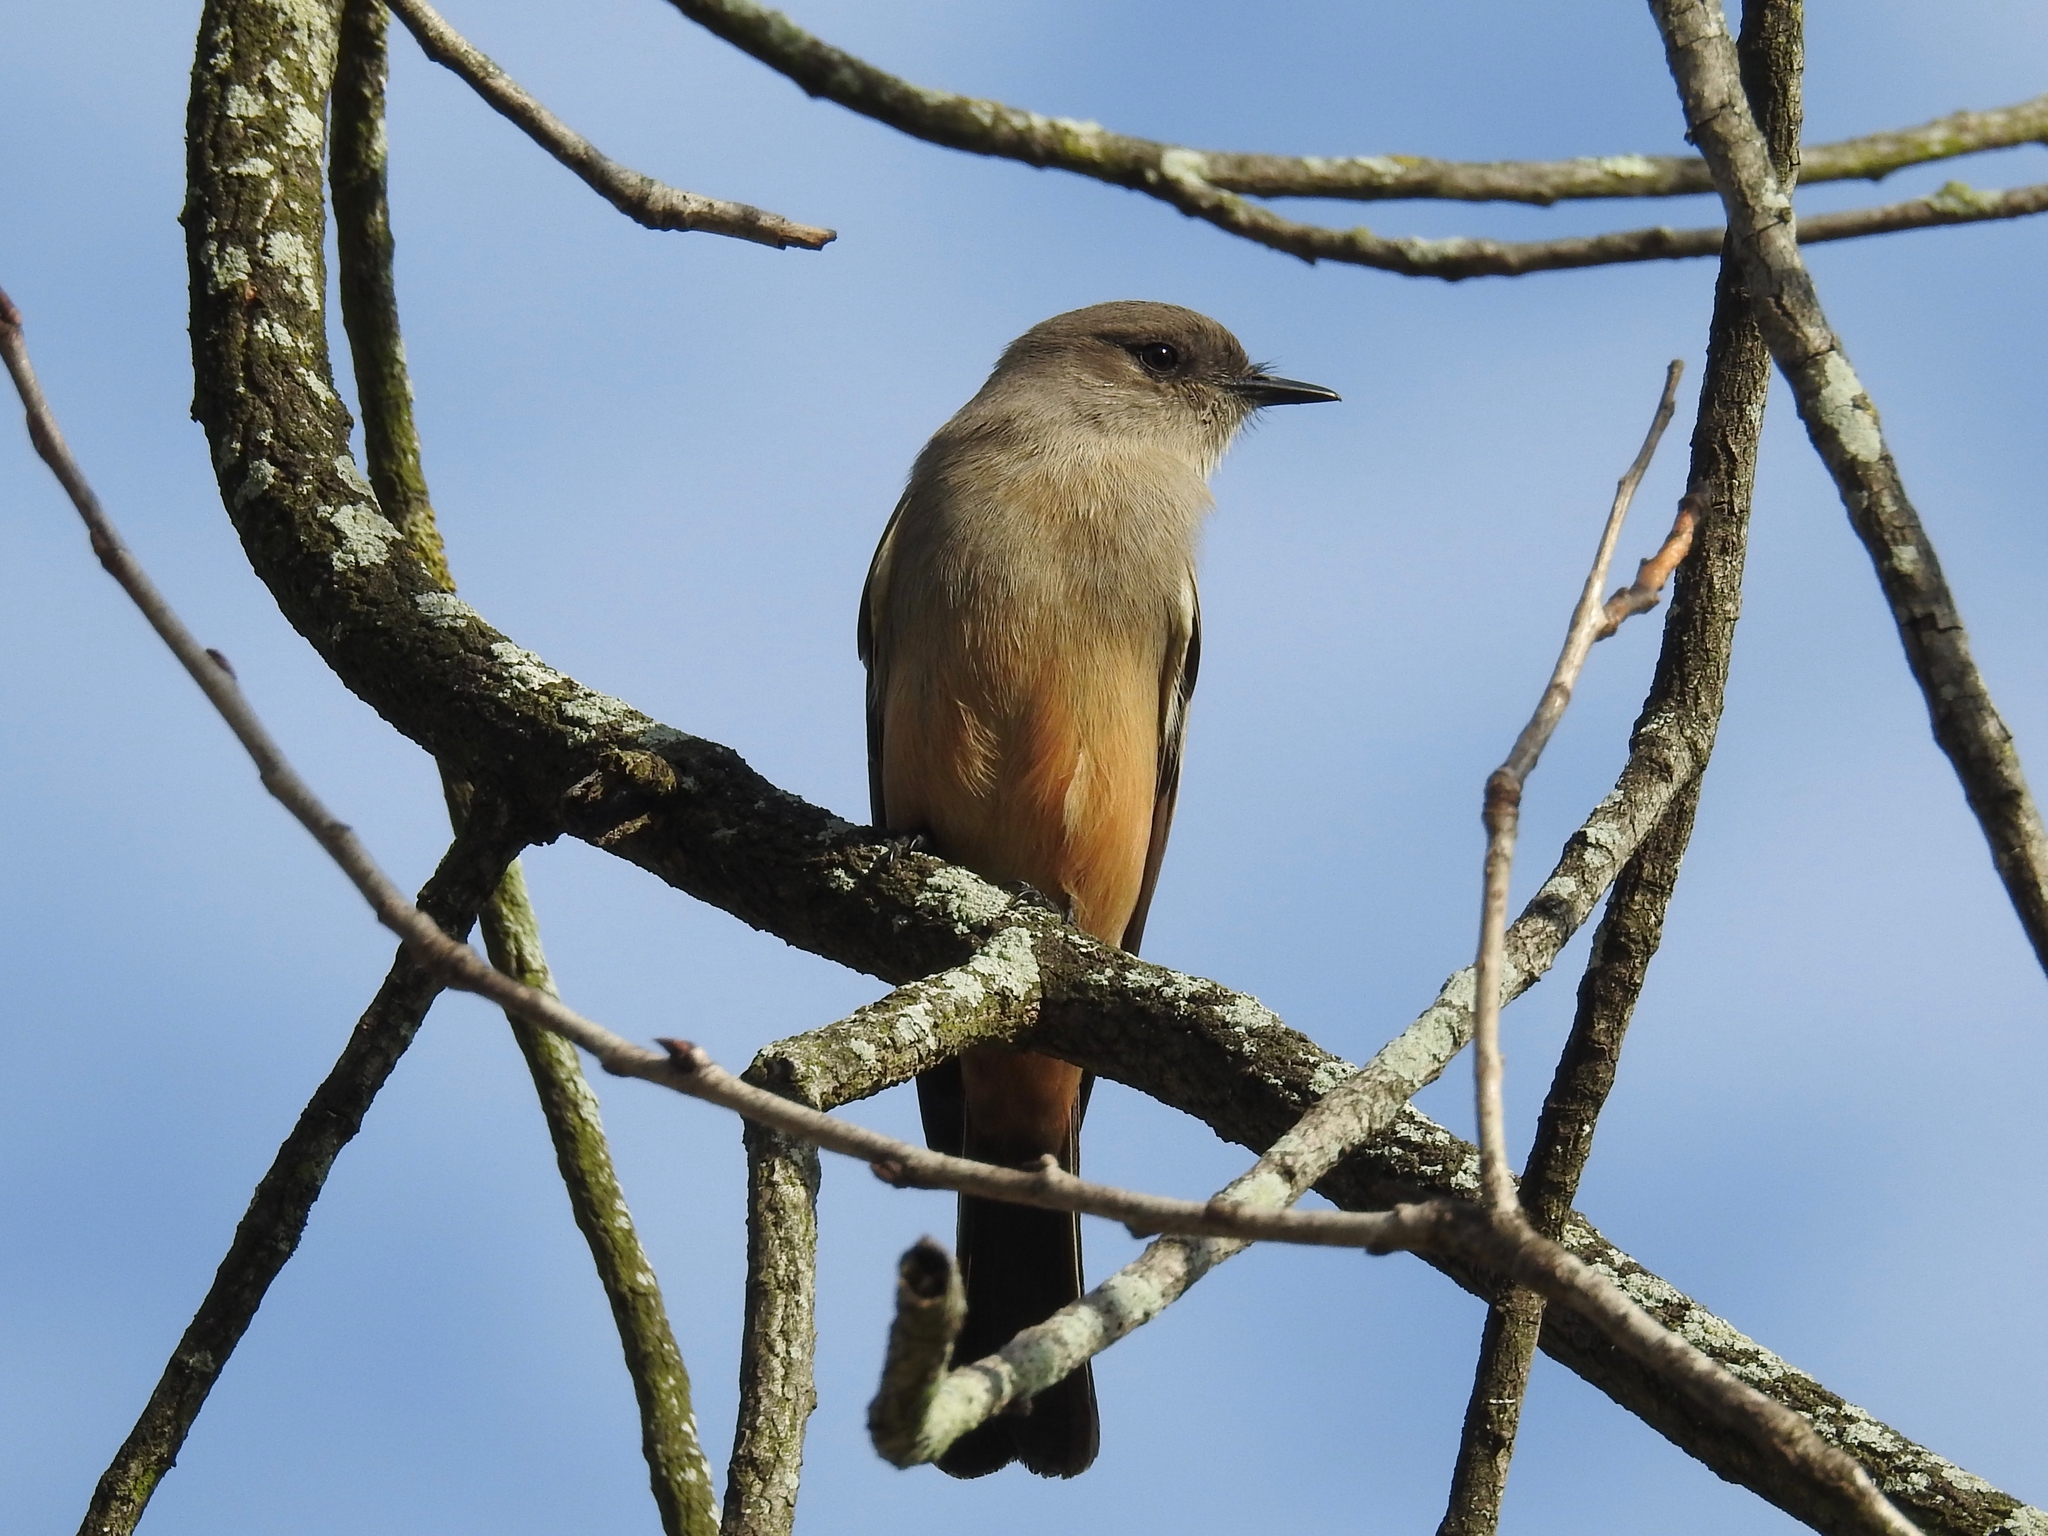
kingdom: Animalia
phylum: Chordata
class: Aves
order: Passeriformes
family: Tyrannidae
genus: Sayornis
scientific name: Sayornis saya
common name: Say's phoebe
